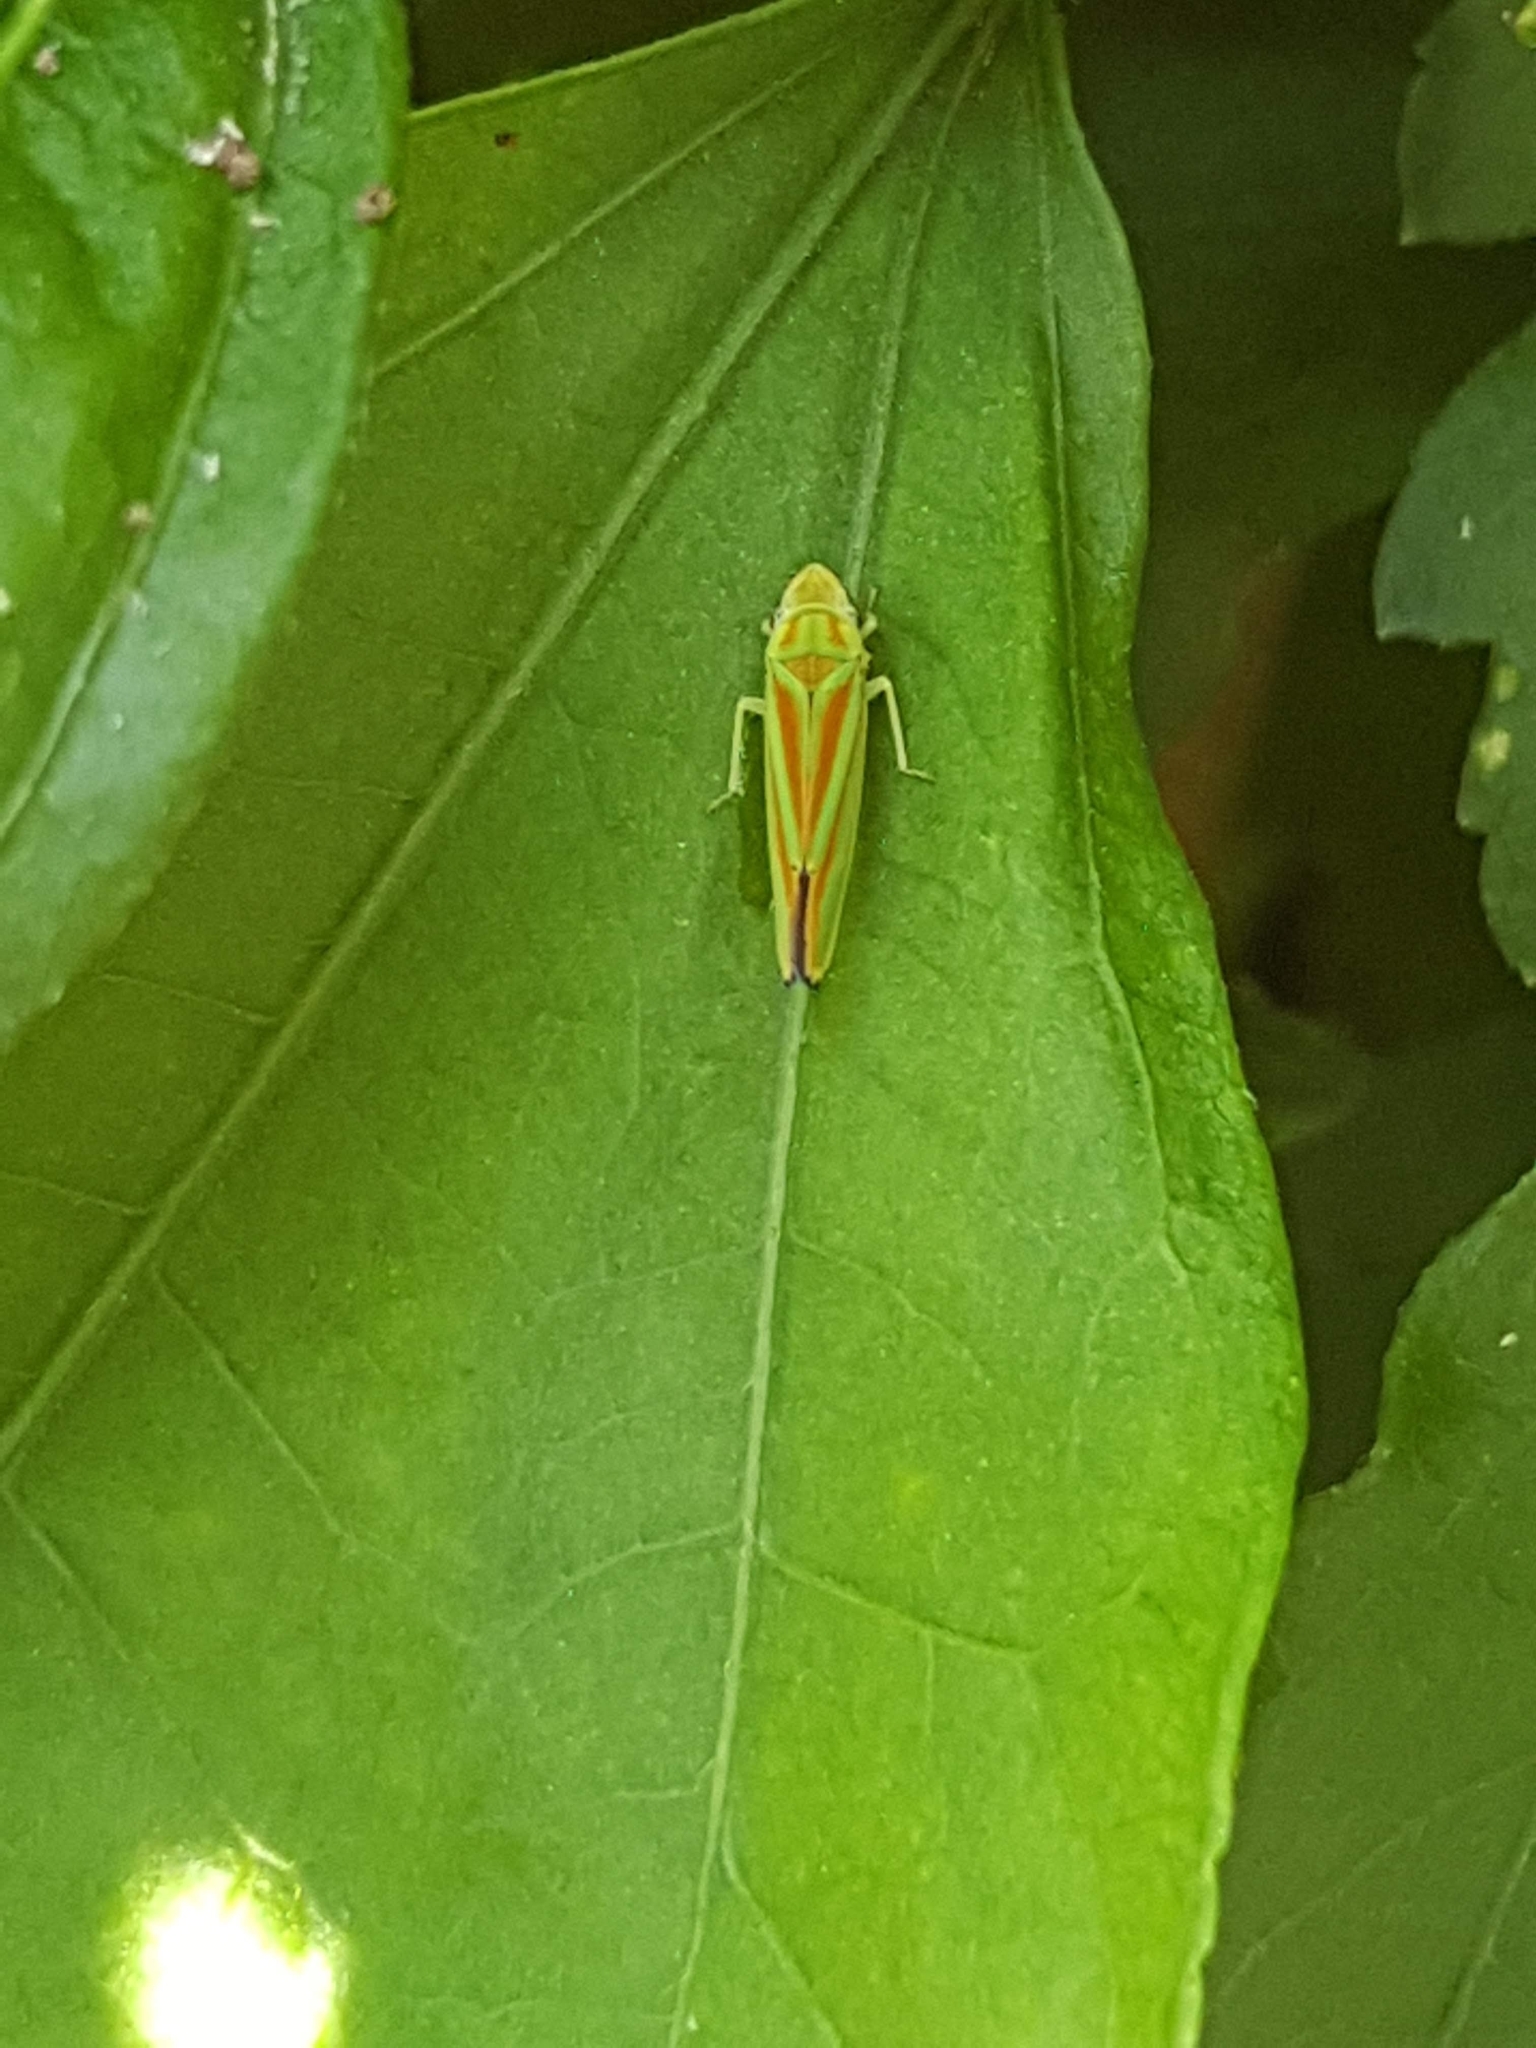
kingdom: Animalia
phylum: Arthropoda
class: Insecta
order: Hemiptera
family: Cicadellidae
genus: Graphocephala
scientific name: Graphocephala fennahi
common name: Rhododendron leafhopper
